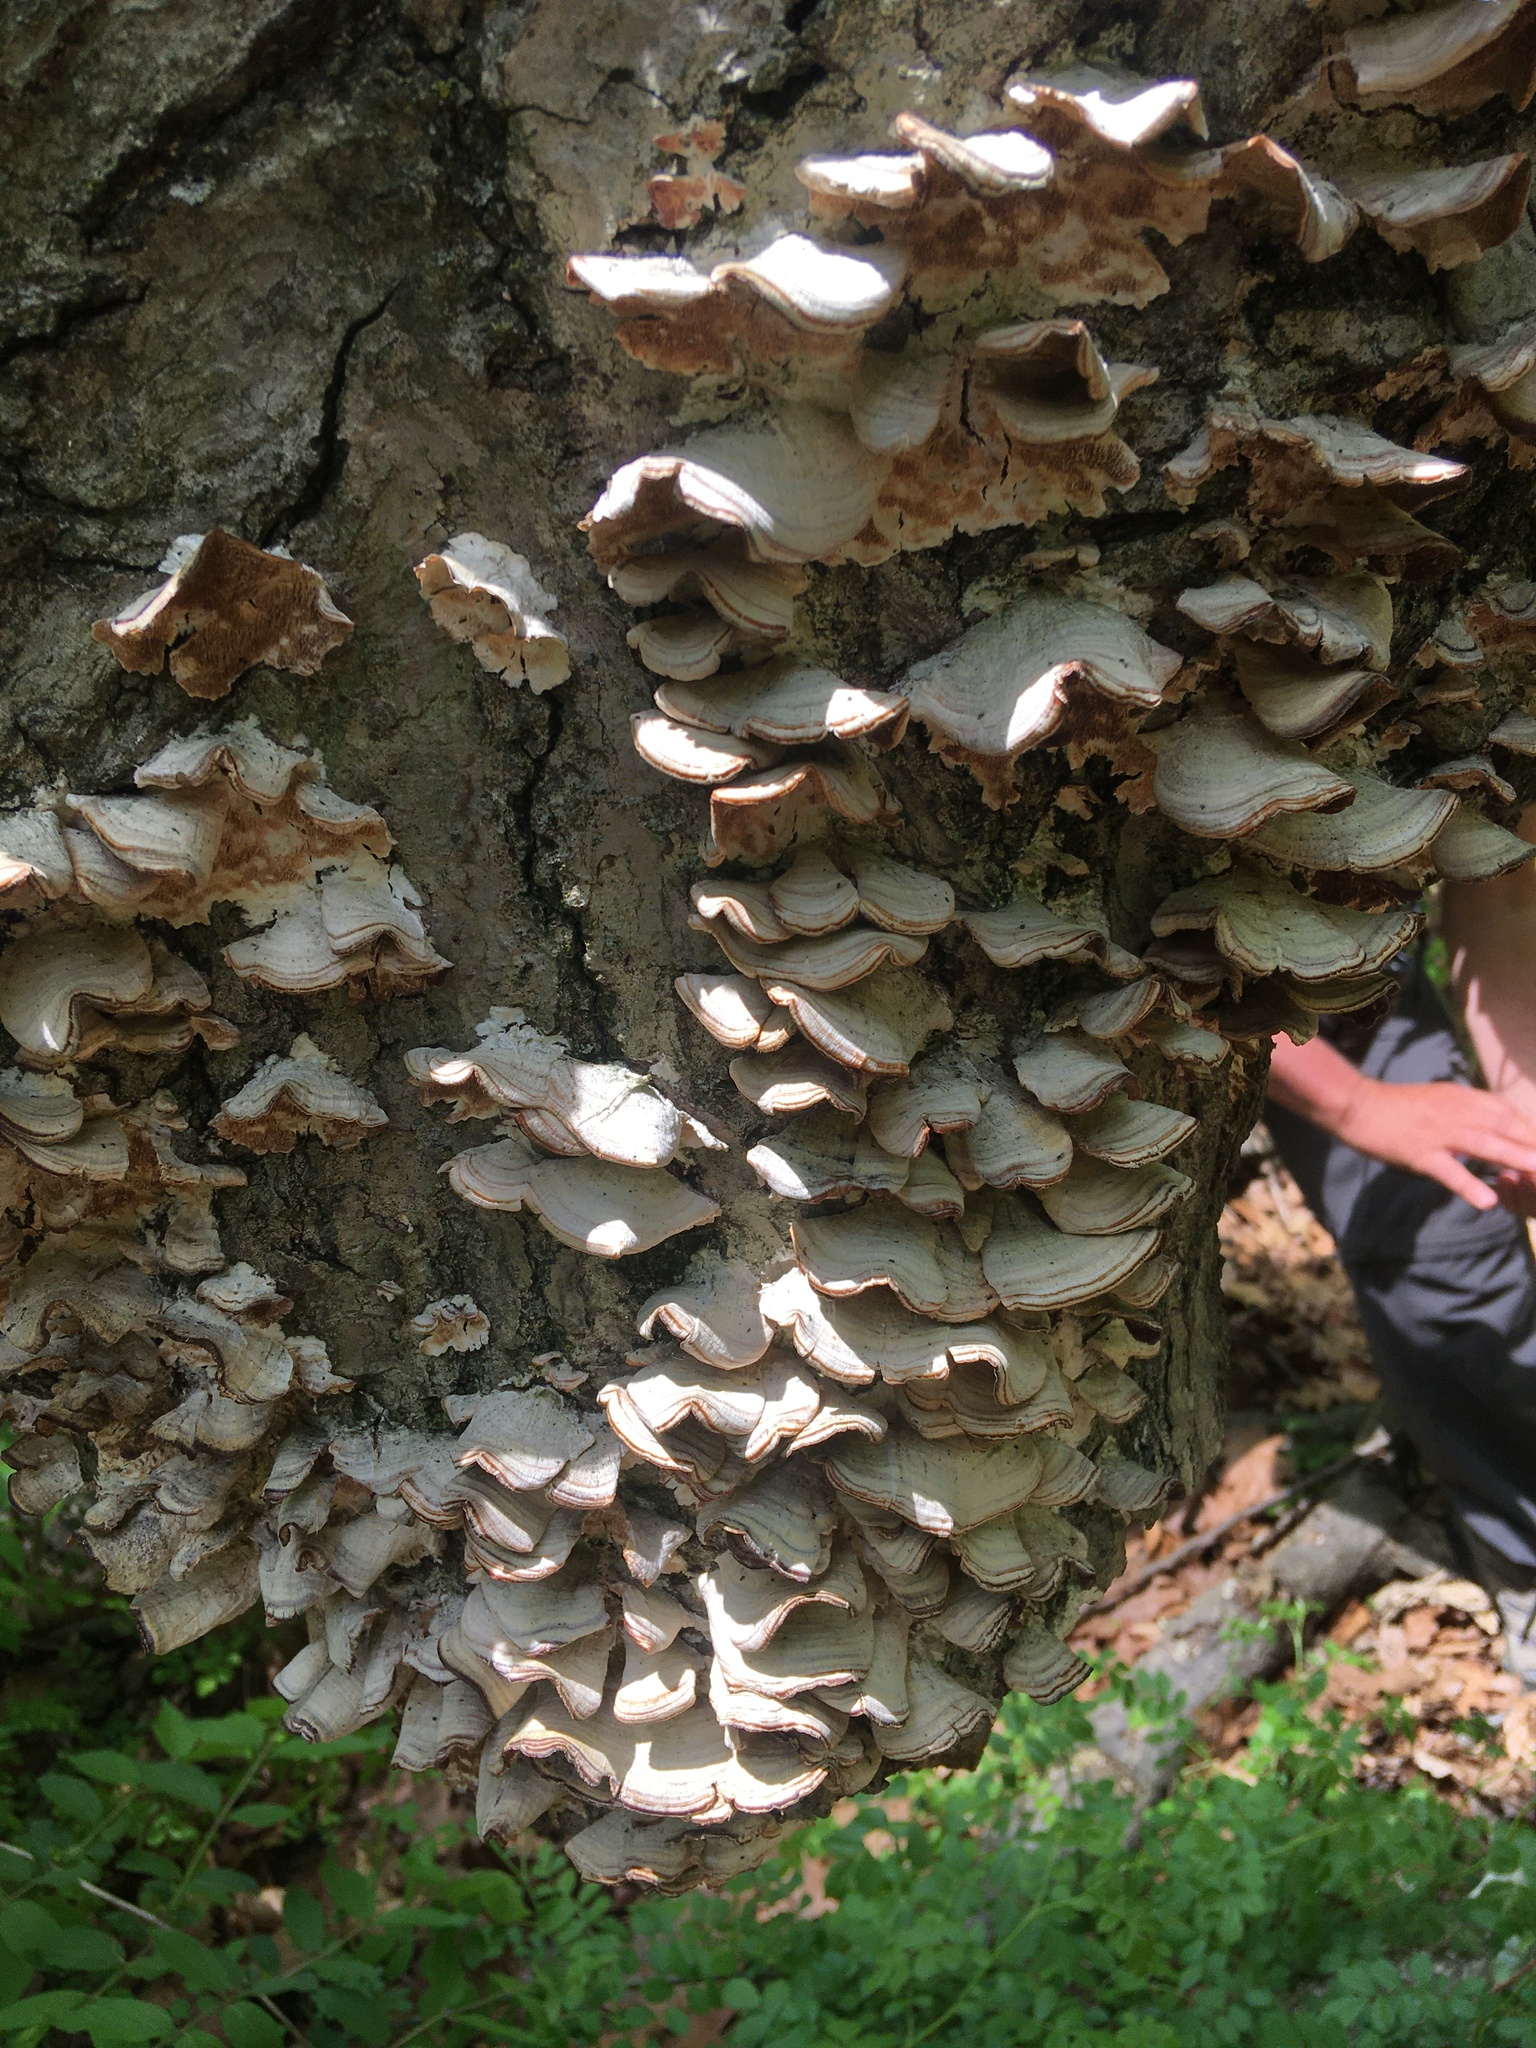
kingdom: Fungi
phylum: Basidiomycota
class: Agaricomycetes
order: Hymenochaetales
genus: Trichaptum
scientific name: Trichaptum biforme
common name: Violet-toothed polypore
